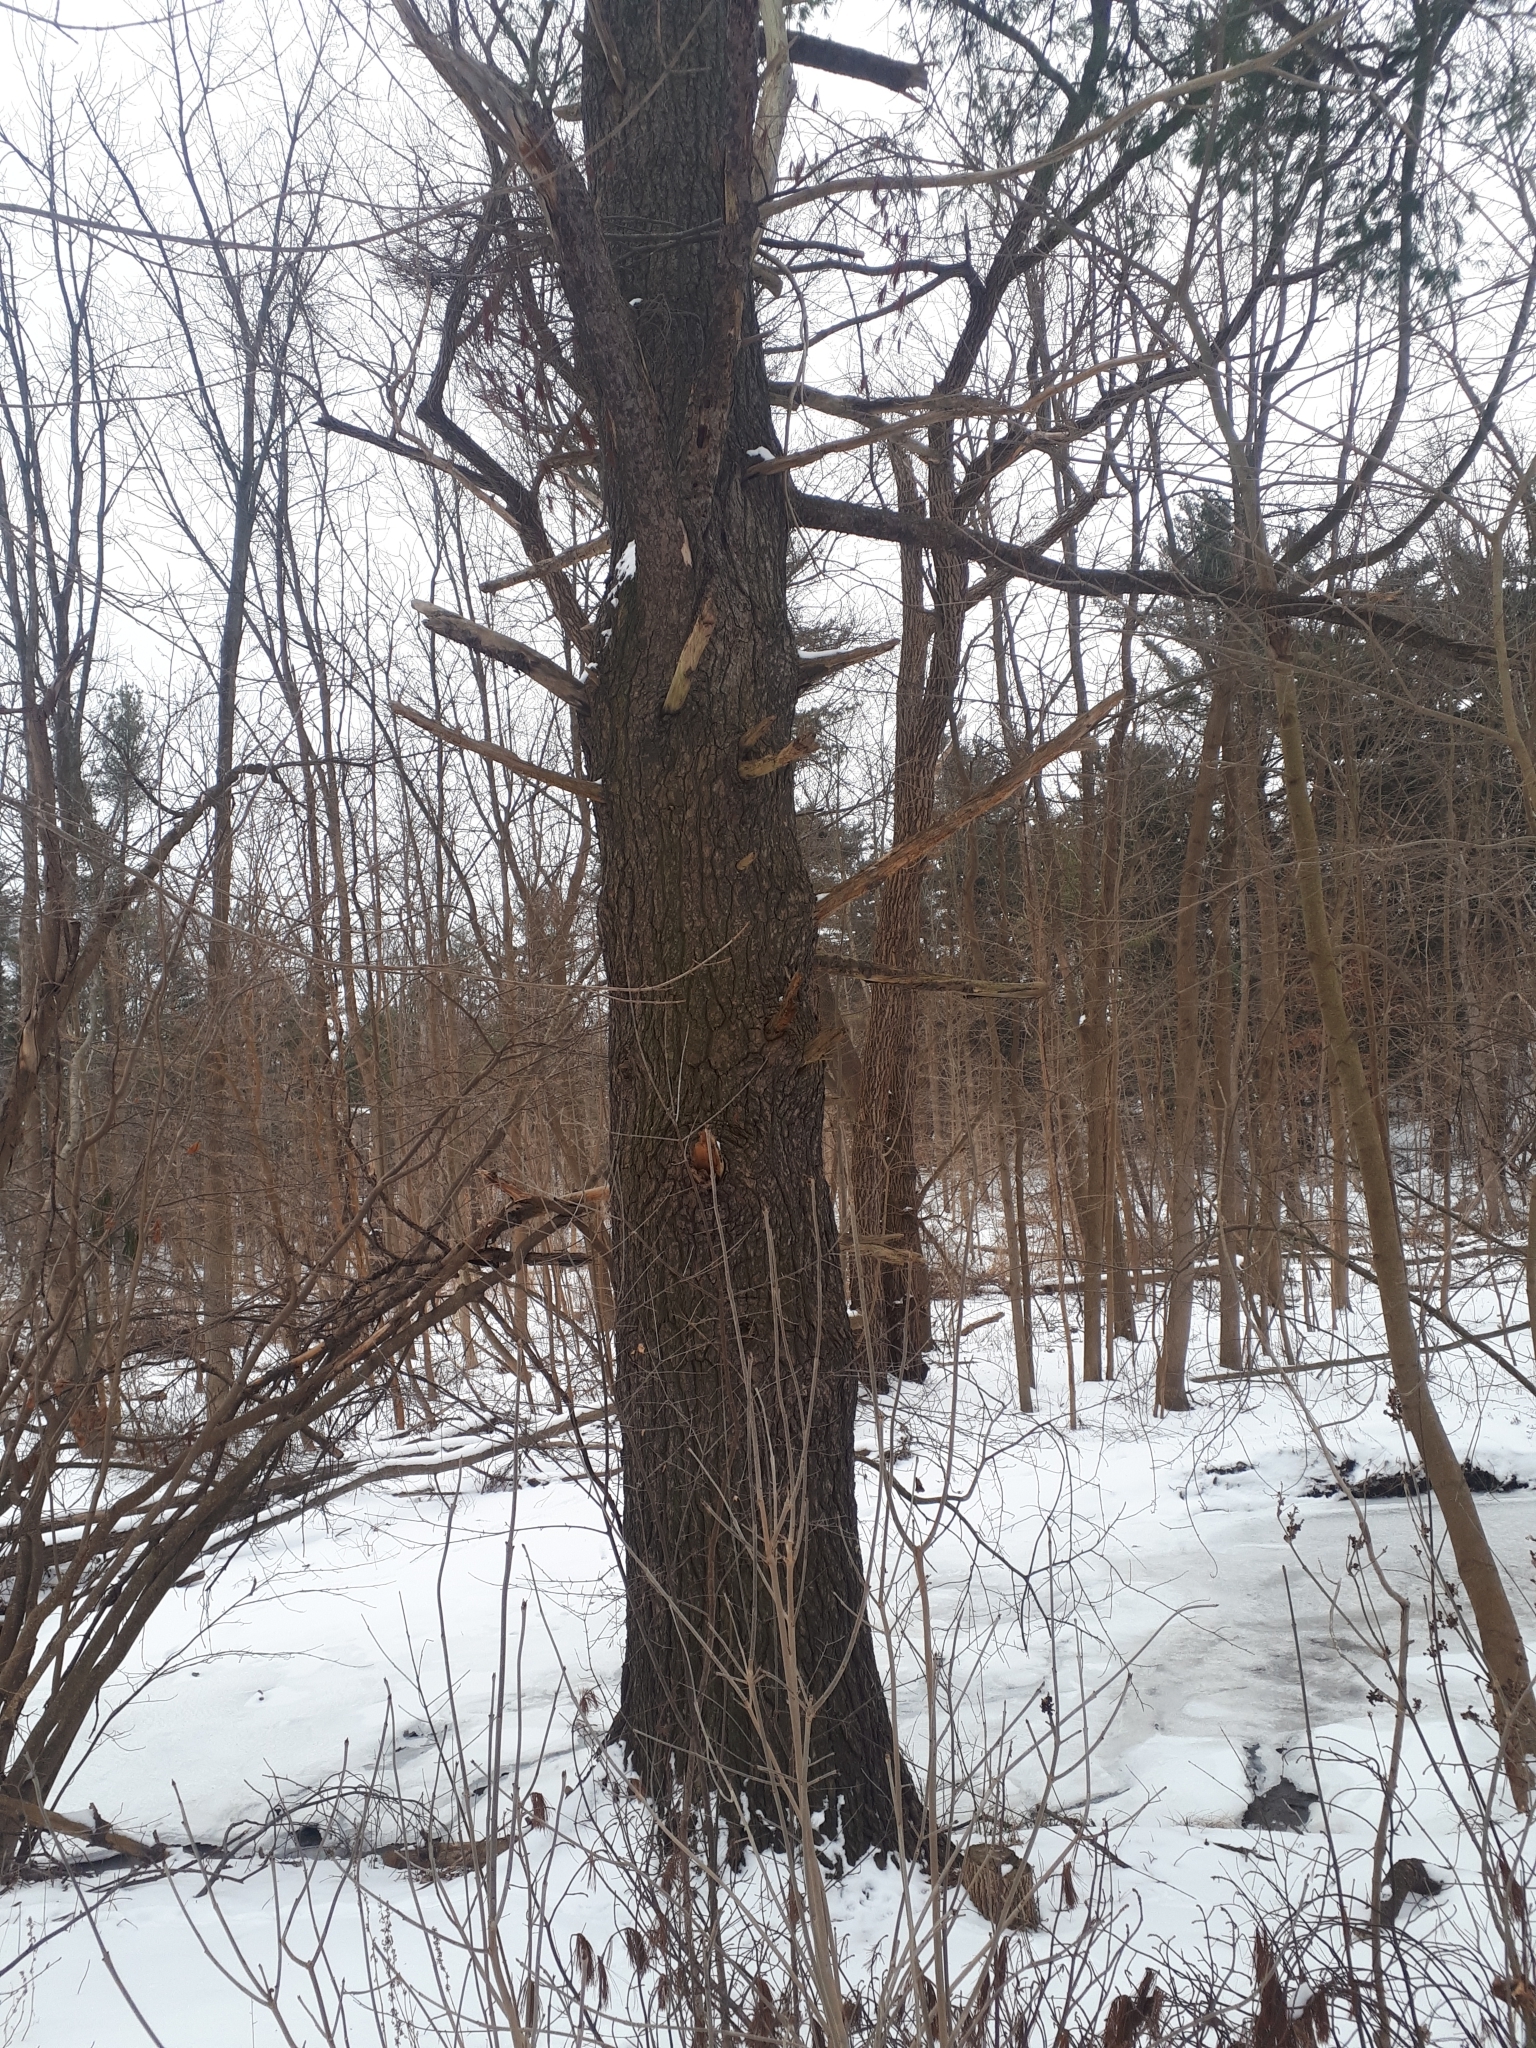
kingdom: Plantae
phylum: Tracheophyta
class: Pinopsida
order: Pinales
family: Pinaceae
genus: Pinus
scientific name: Pinus strobus
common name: Weymouth pine
